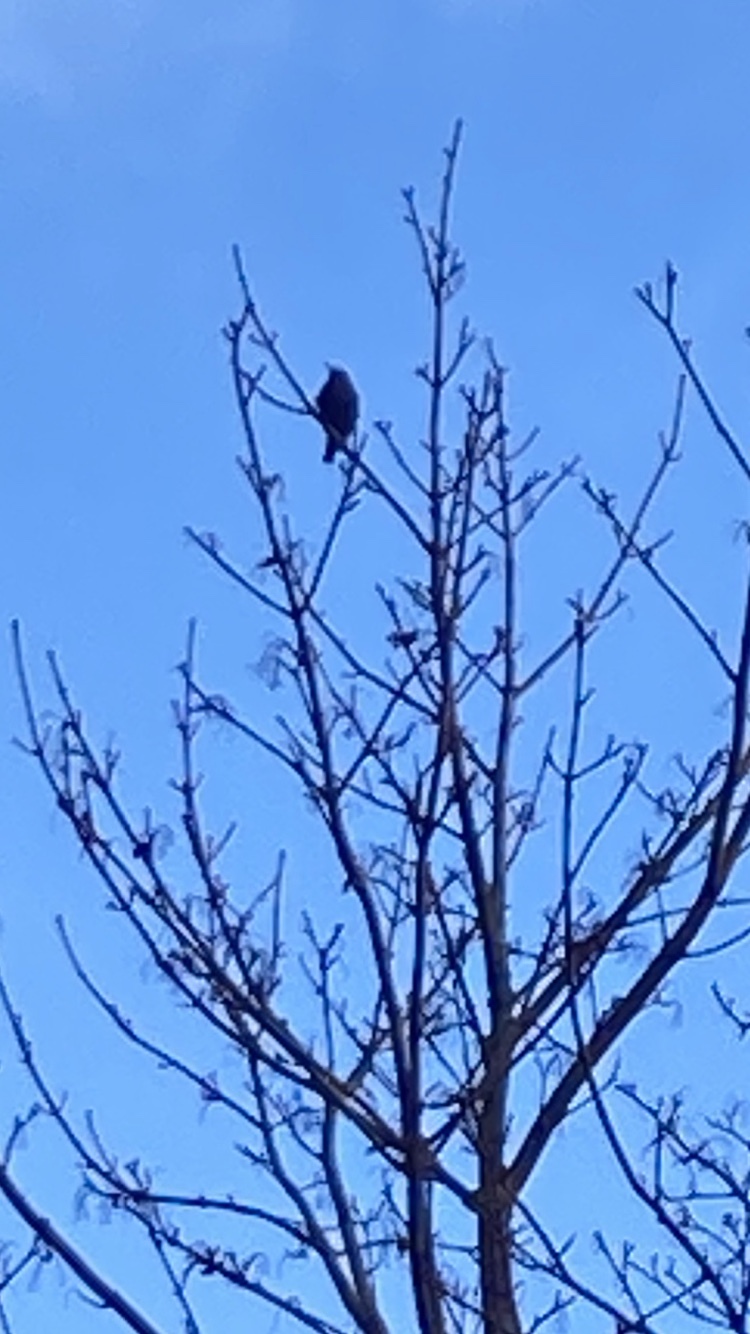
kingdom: Animalia
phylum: Chordata
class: Aves
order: Passeriformes
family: Sturnidae
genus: Sturnus
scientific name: Sturnus vulgaris
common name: Common starling
